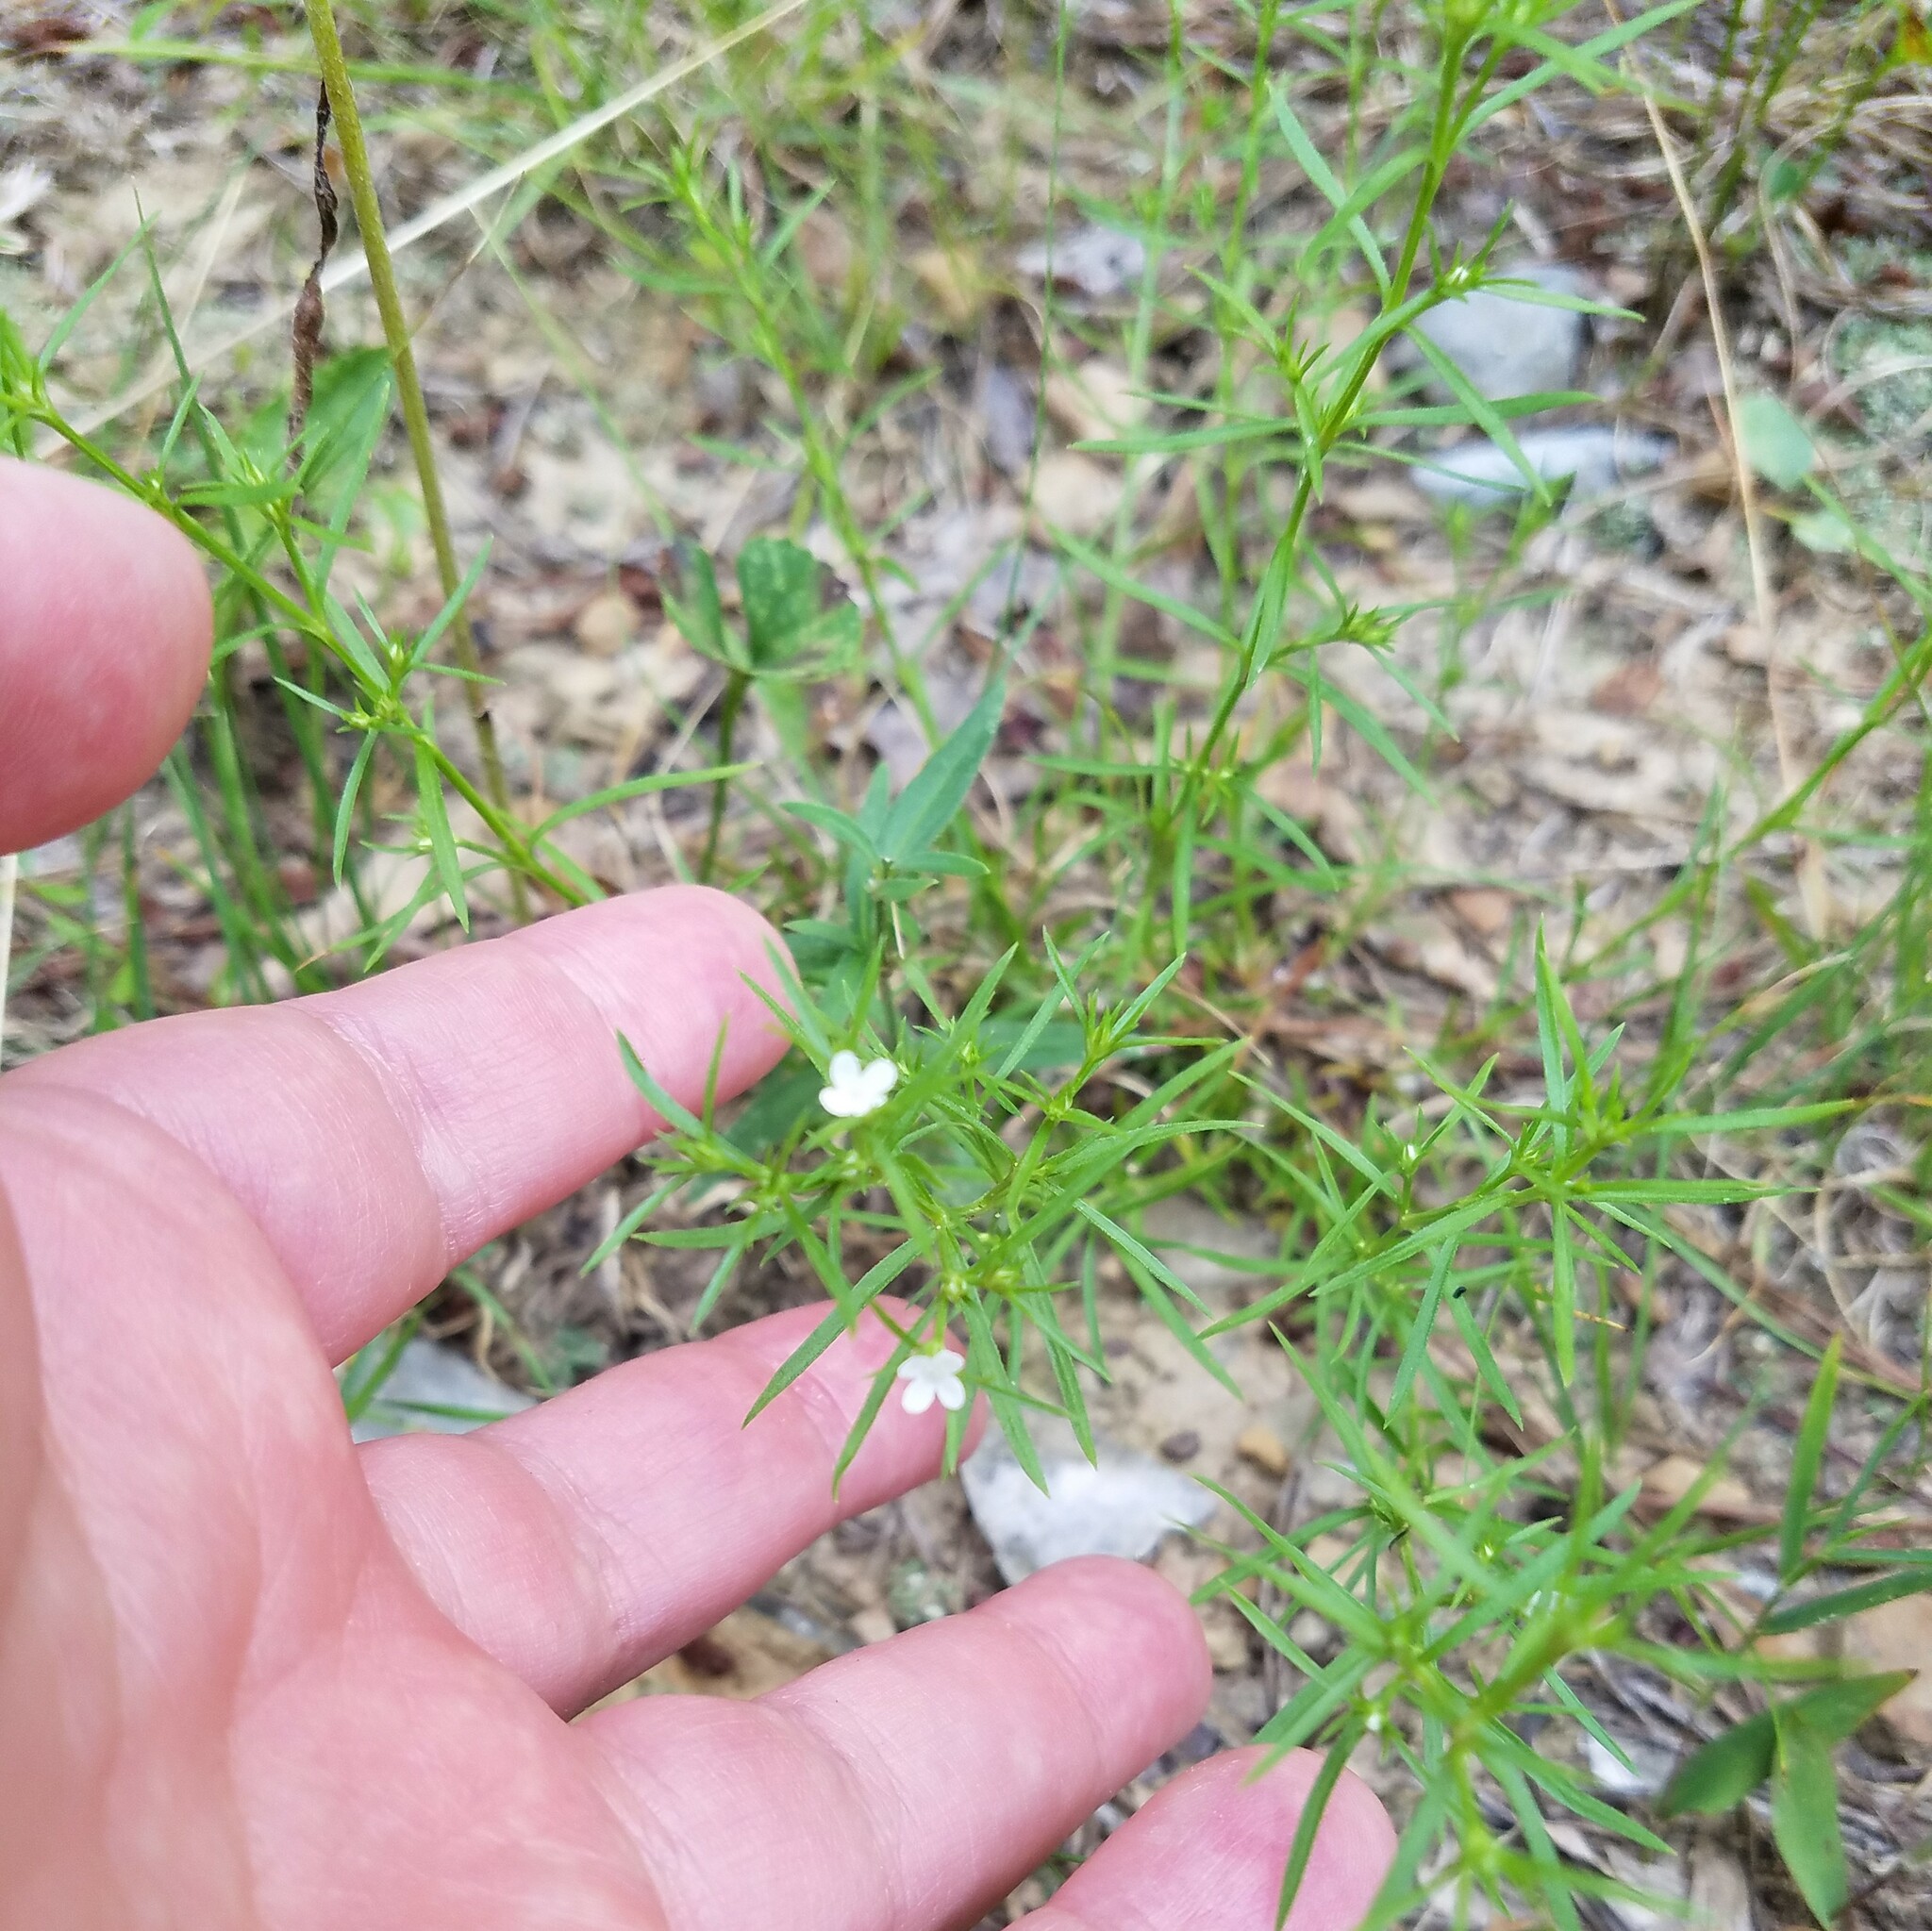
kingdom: Plantae
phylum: Tracheophyta
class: Magnoliopsida
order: Lamiales
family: Tetrachondraceae
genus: Polypremum
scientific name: Polypremum procumbens
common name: Juniper-leaf
